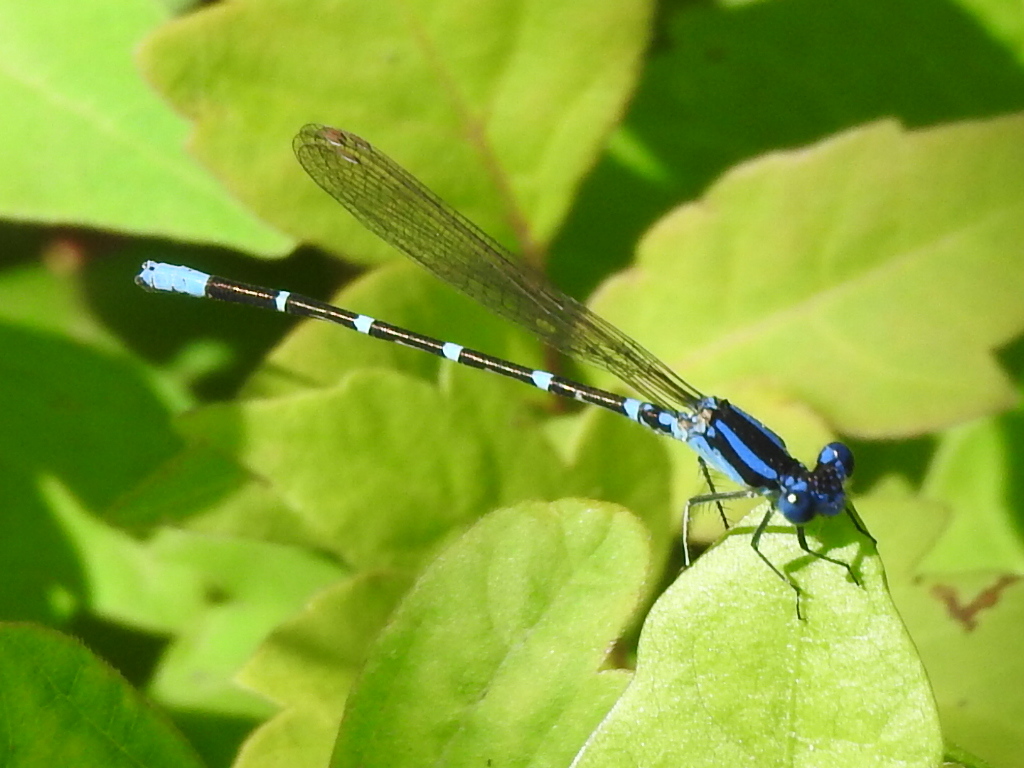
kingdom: Animalia
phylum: Arthropoda
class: Insecta
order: Odonata
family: Coenagrionidae
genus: Argia
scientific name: Argia sedula
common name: Blue-ringed dancer
